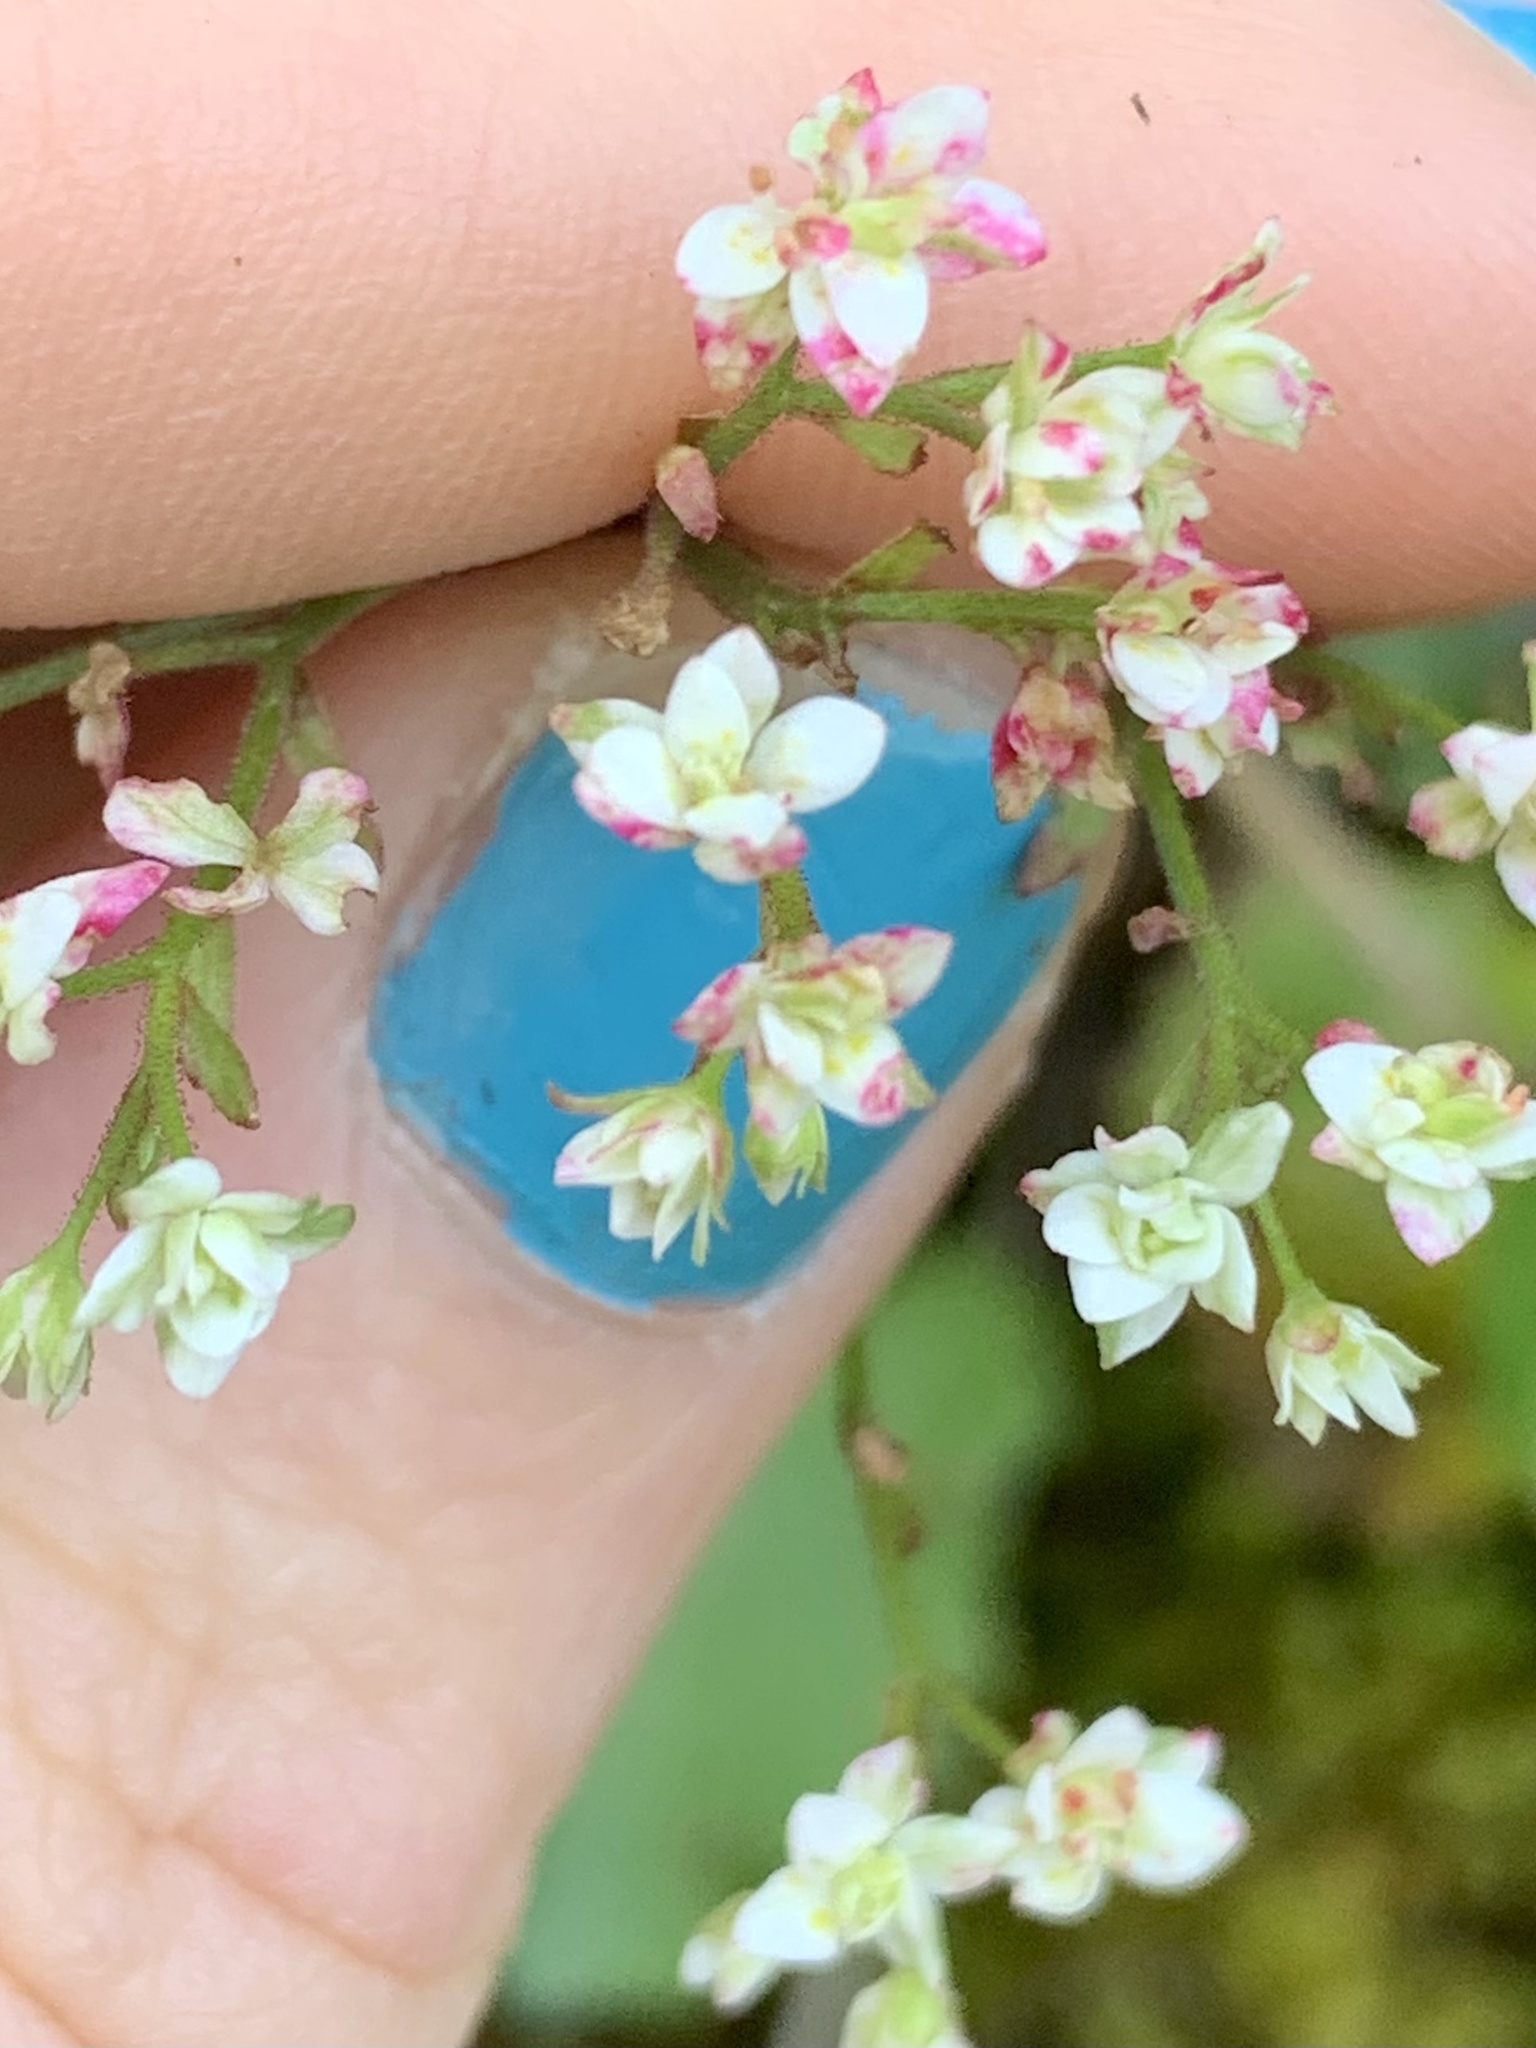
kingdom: Plantae
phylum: Tracheophyta
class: Magnoliopsida
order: Saxifragales
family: Saxifragaceae
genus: Micranthes
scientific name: Micranthes marshallii
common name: Marshall's saxifrage
